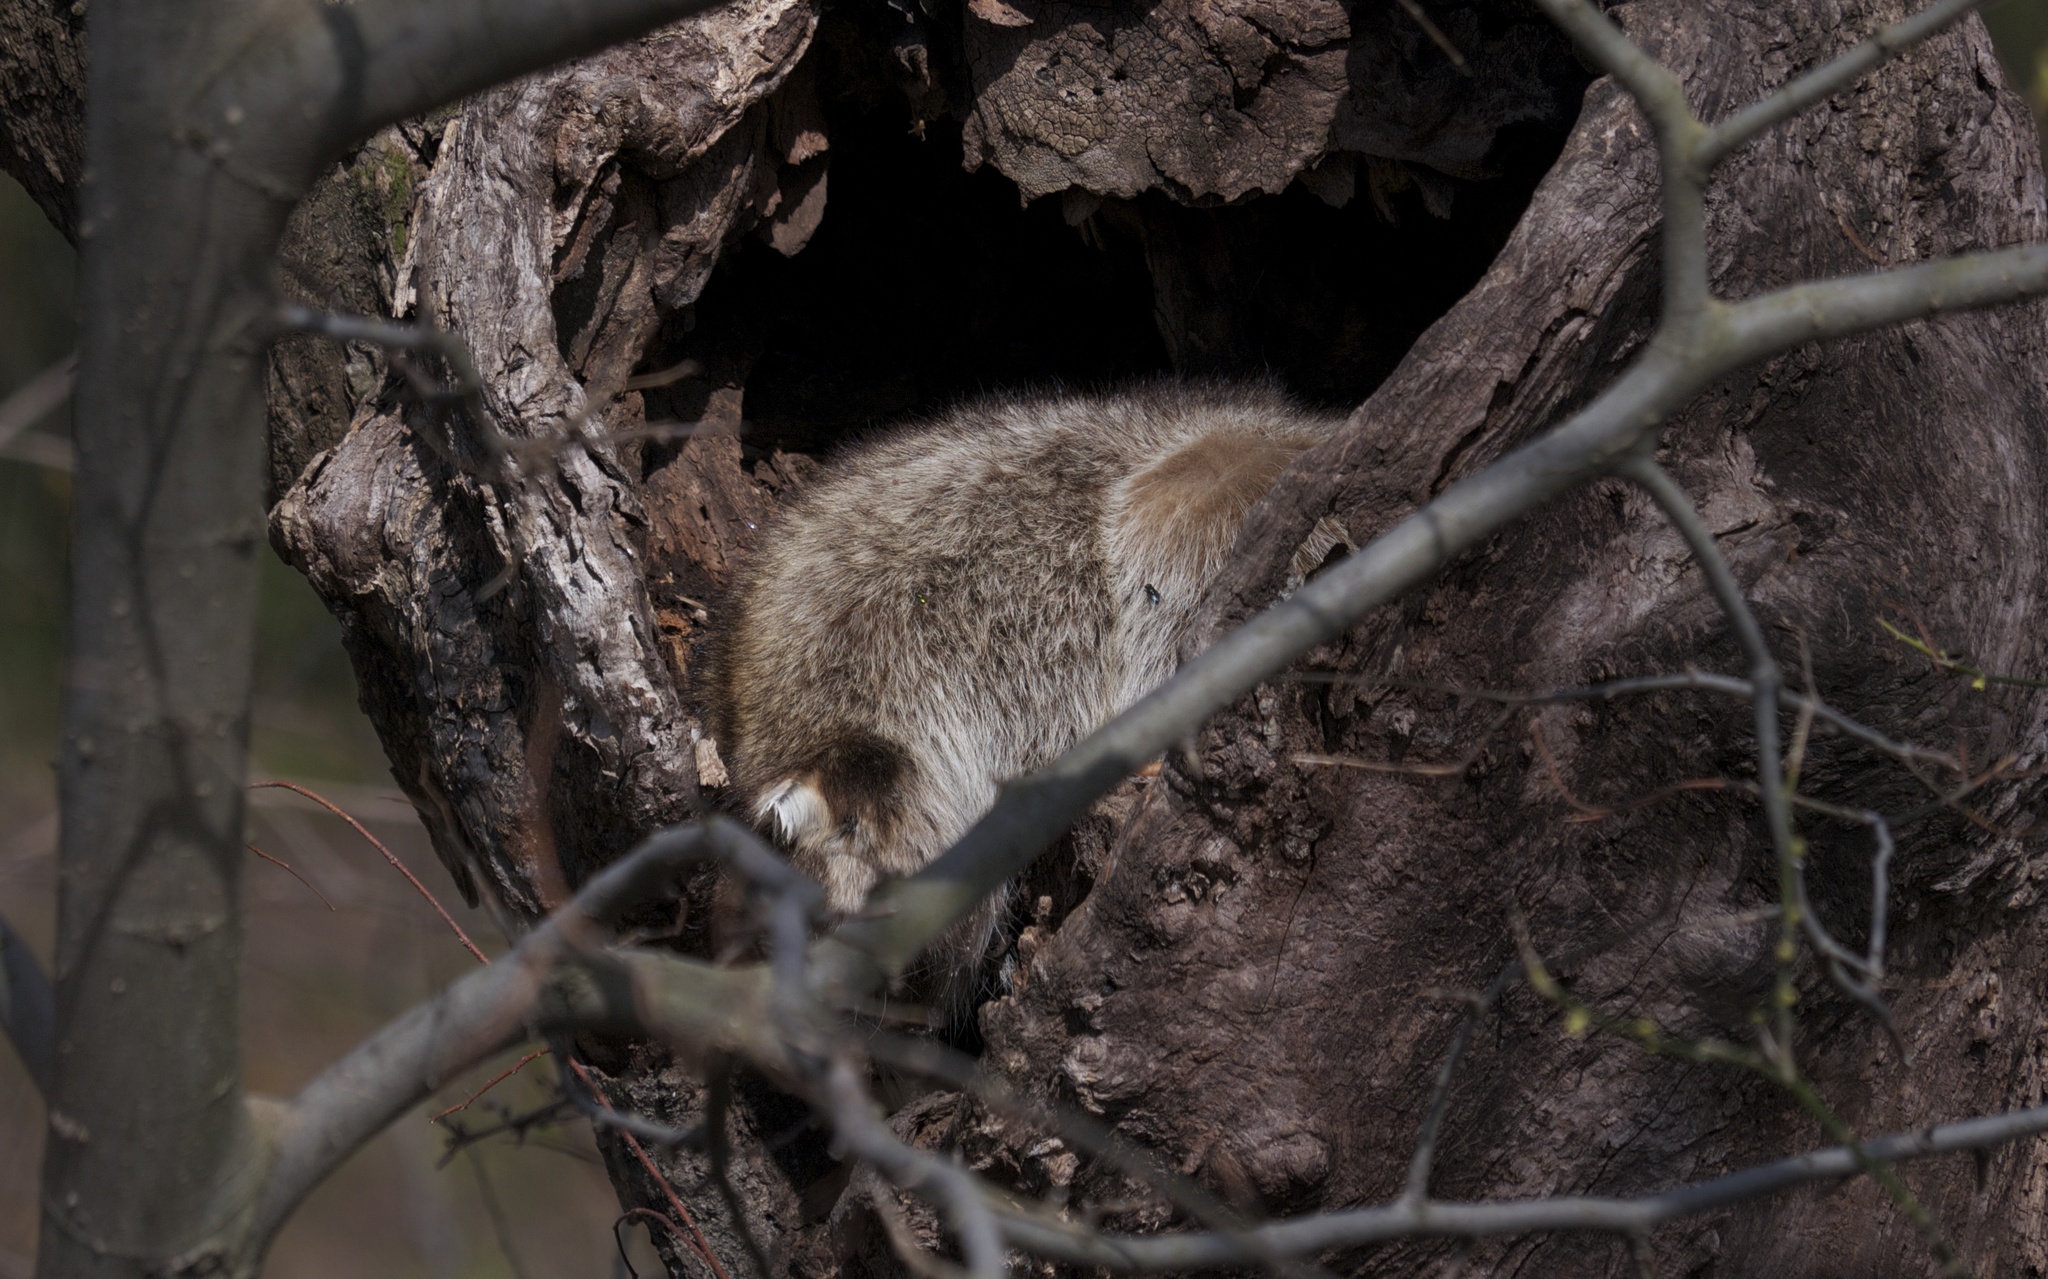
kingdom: Animalia
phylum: Chordata
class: Mammalia
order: Carnivora
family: Procyonidae
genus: Procyon
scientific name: Procyon lotor
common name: Raccoon
